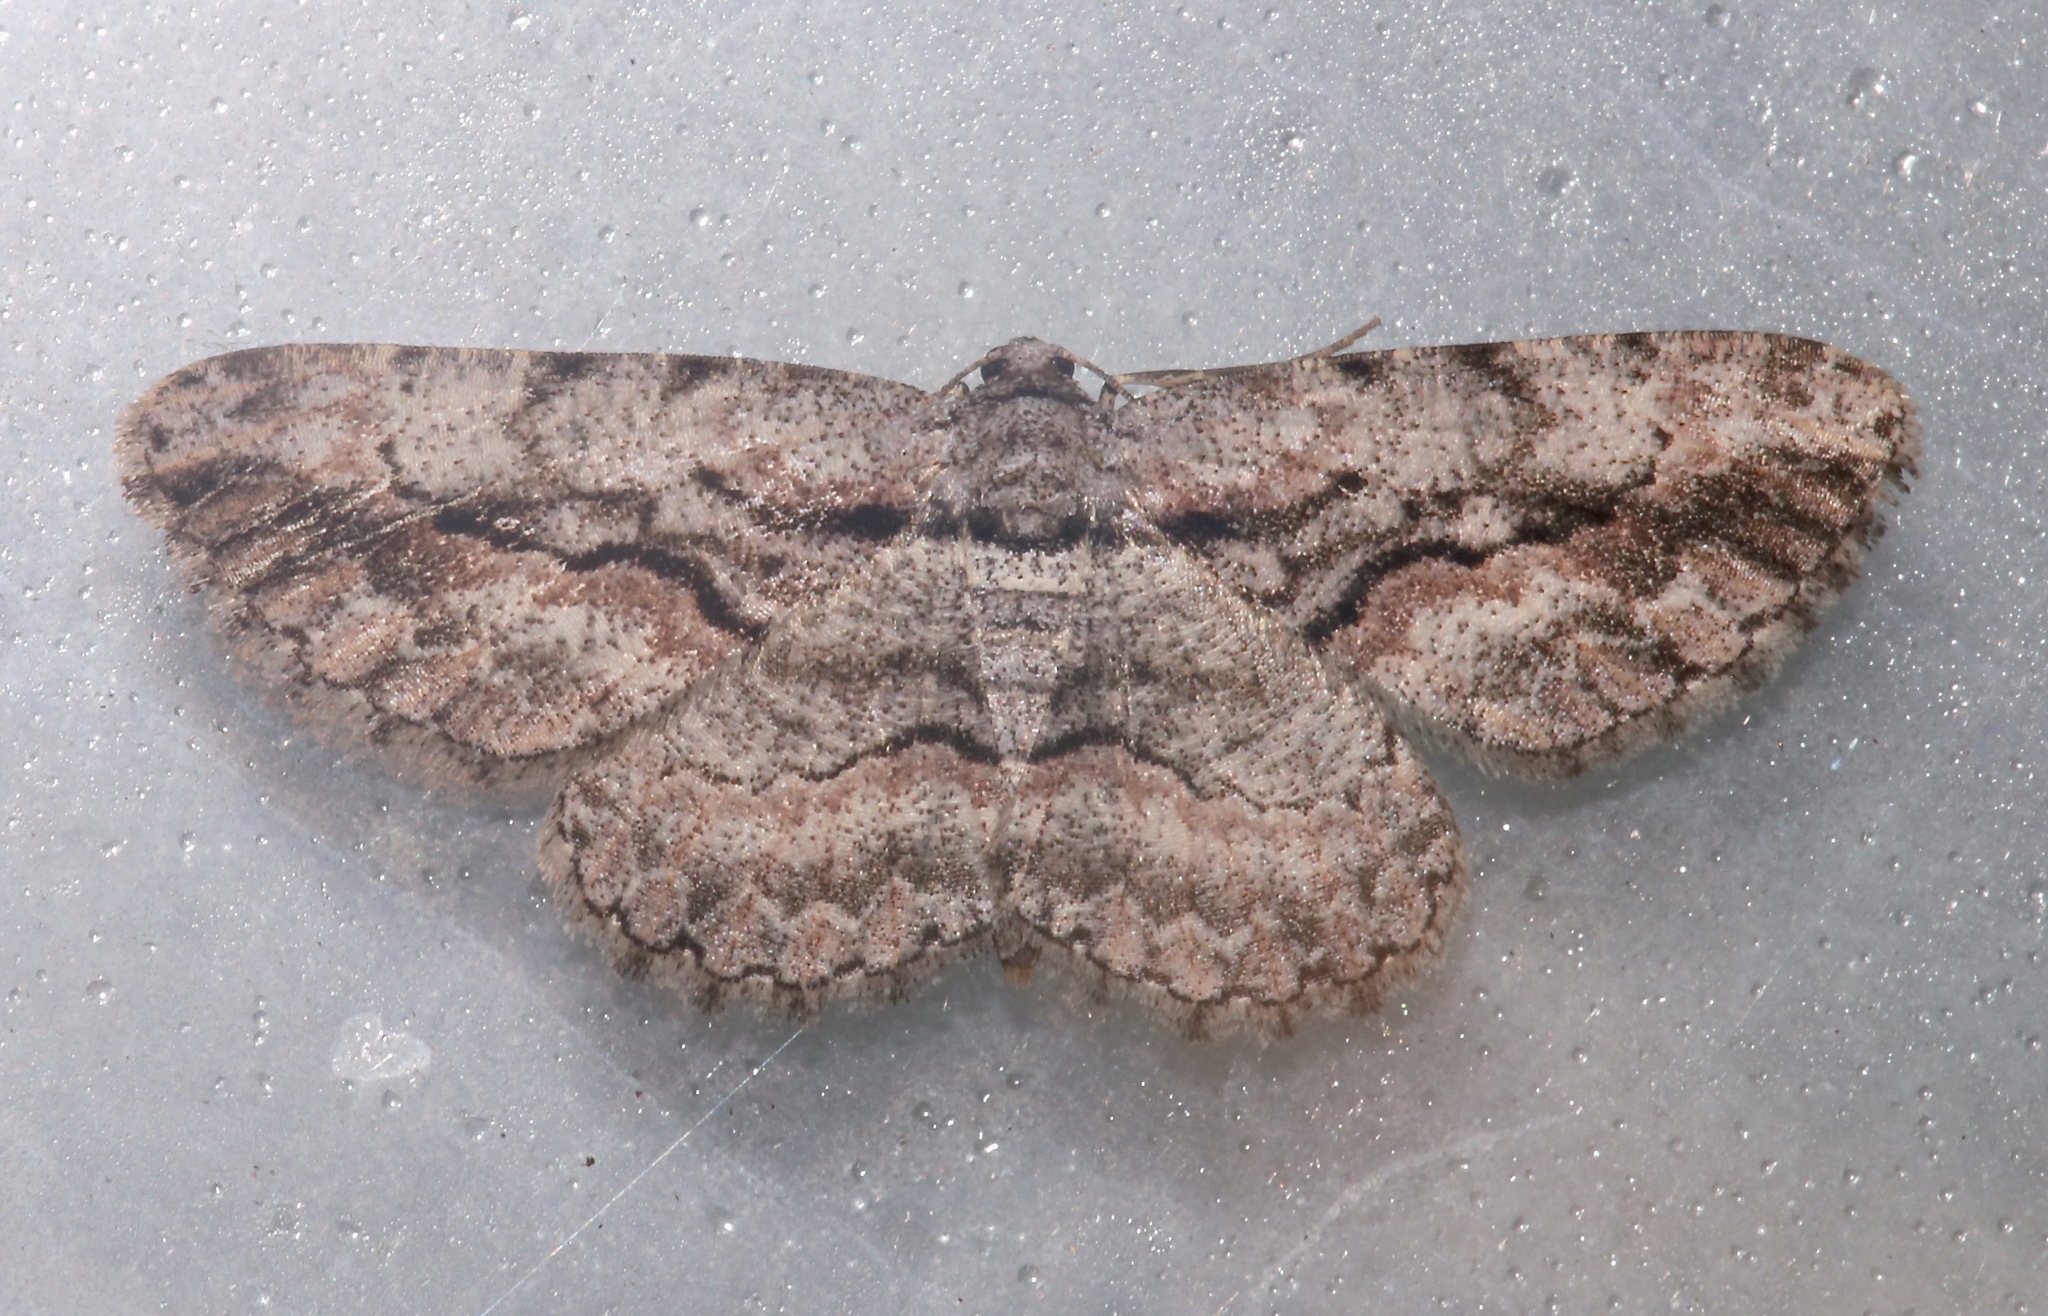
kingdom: Animalia
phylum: Arthropoda
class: Insecta
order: Lepidoptera
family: Geometridae
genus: Anavitrinella
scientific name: Anavitrinella pampinaria
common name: Common gray
